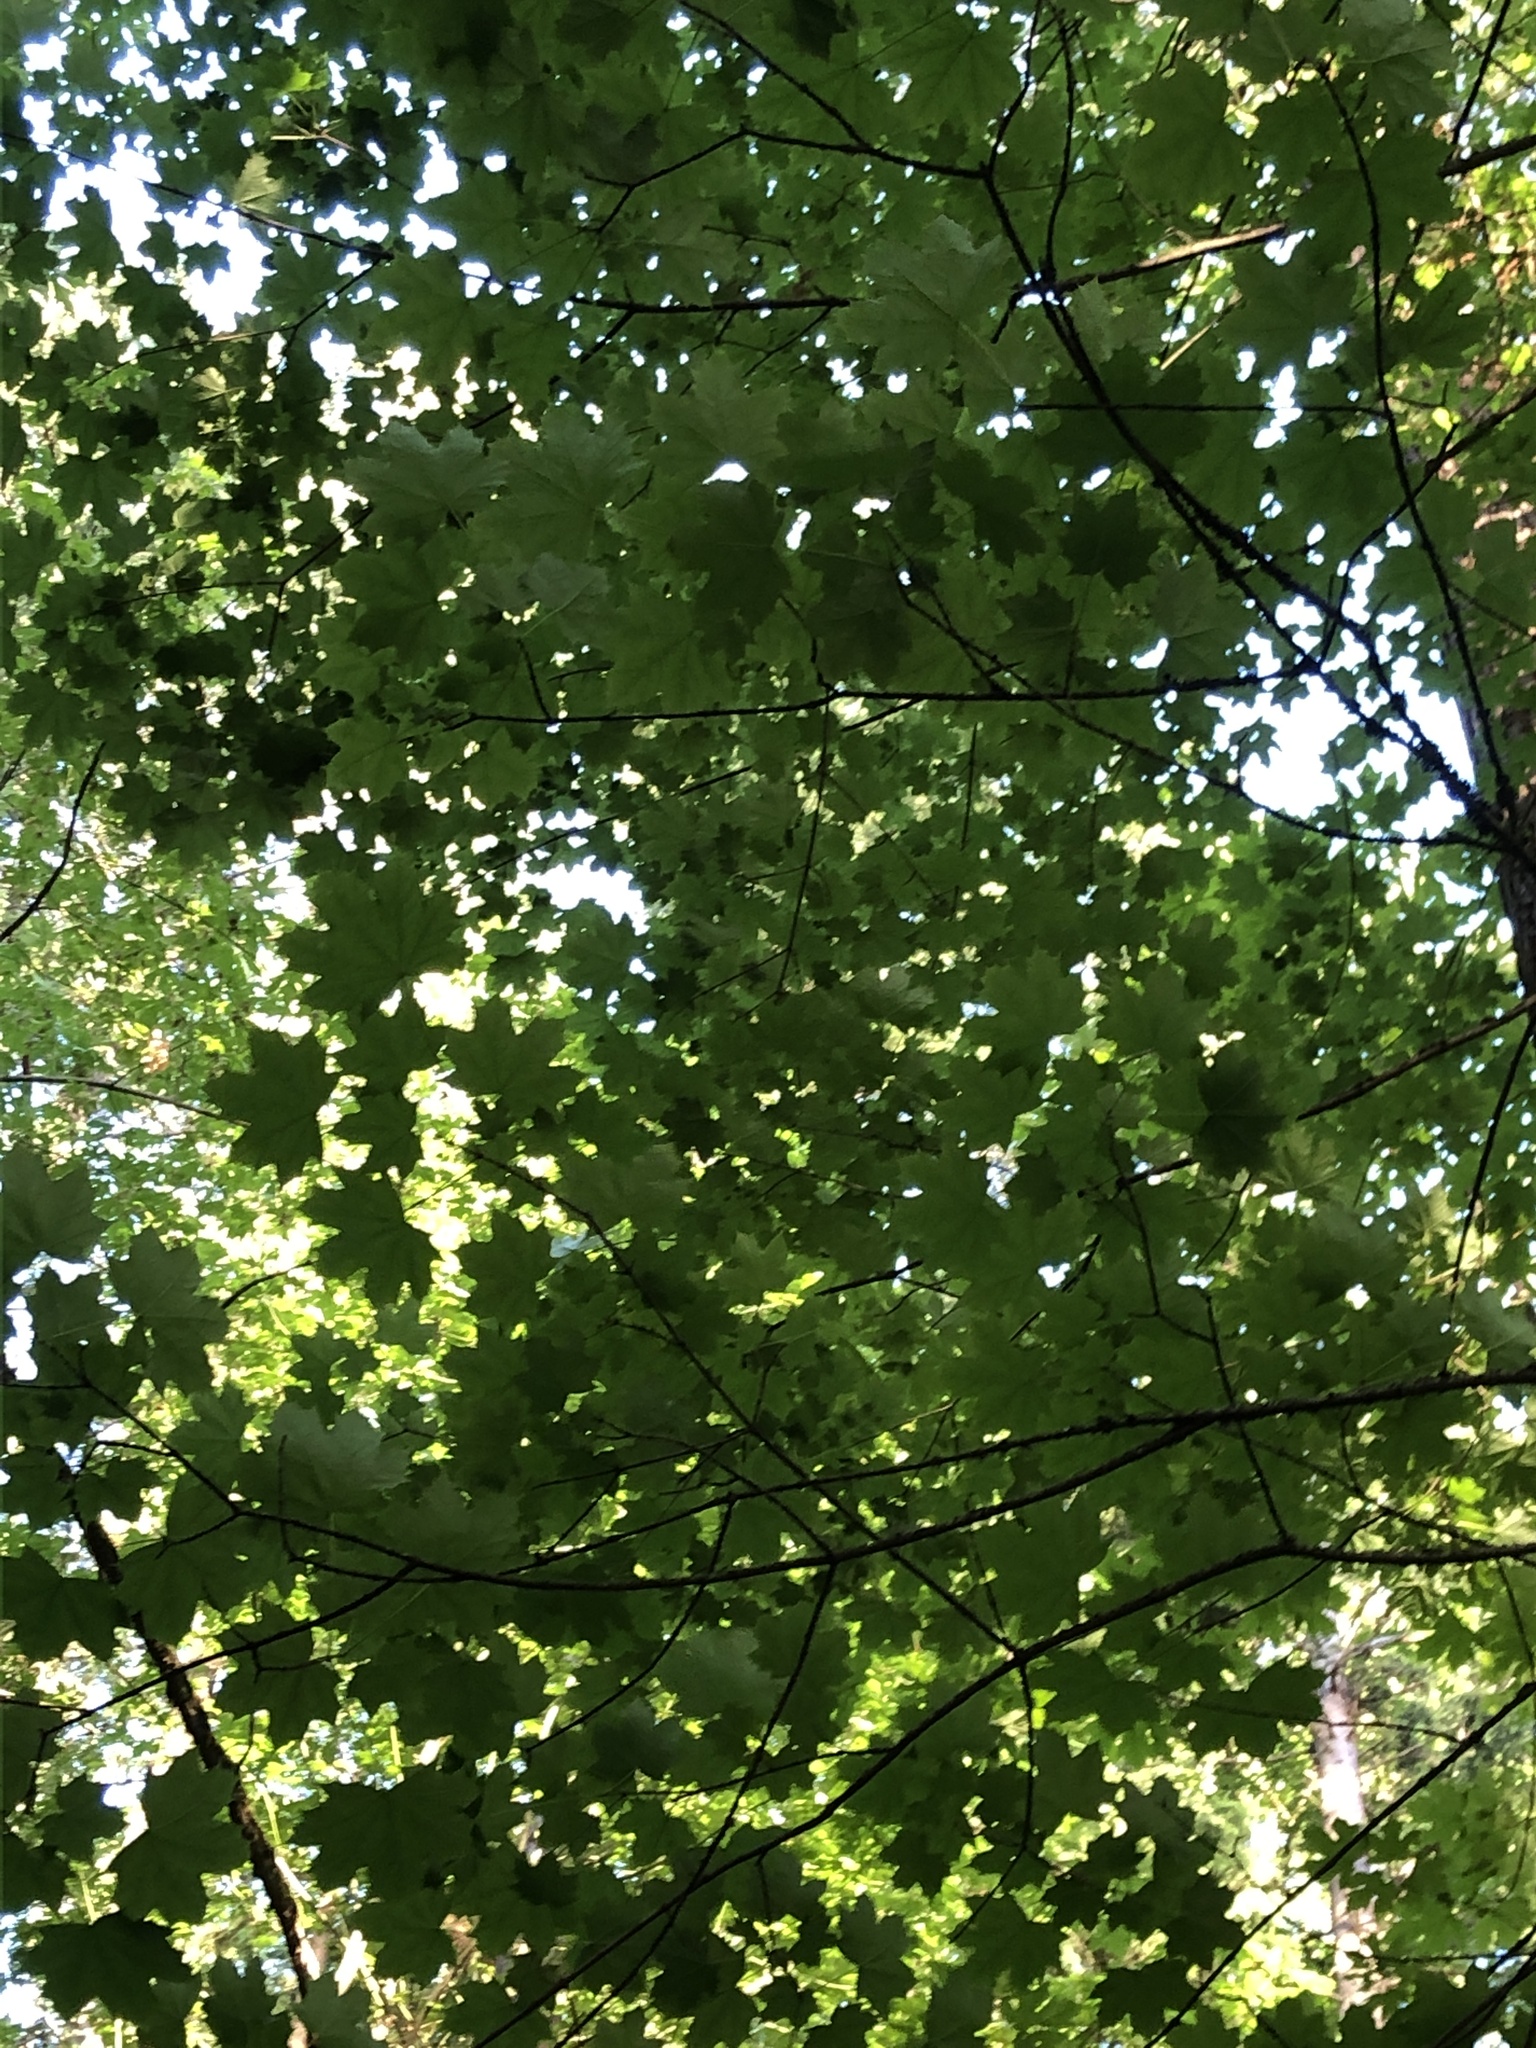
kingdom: Plantae
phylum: Tracheophyta
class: Magnoliopsida
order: Sapindales
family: Sapindaceae
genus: Acer
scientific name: Acer platanoides
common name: Norway maple
